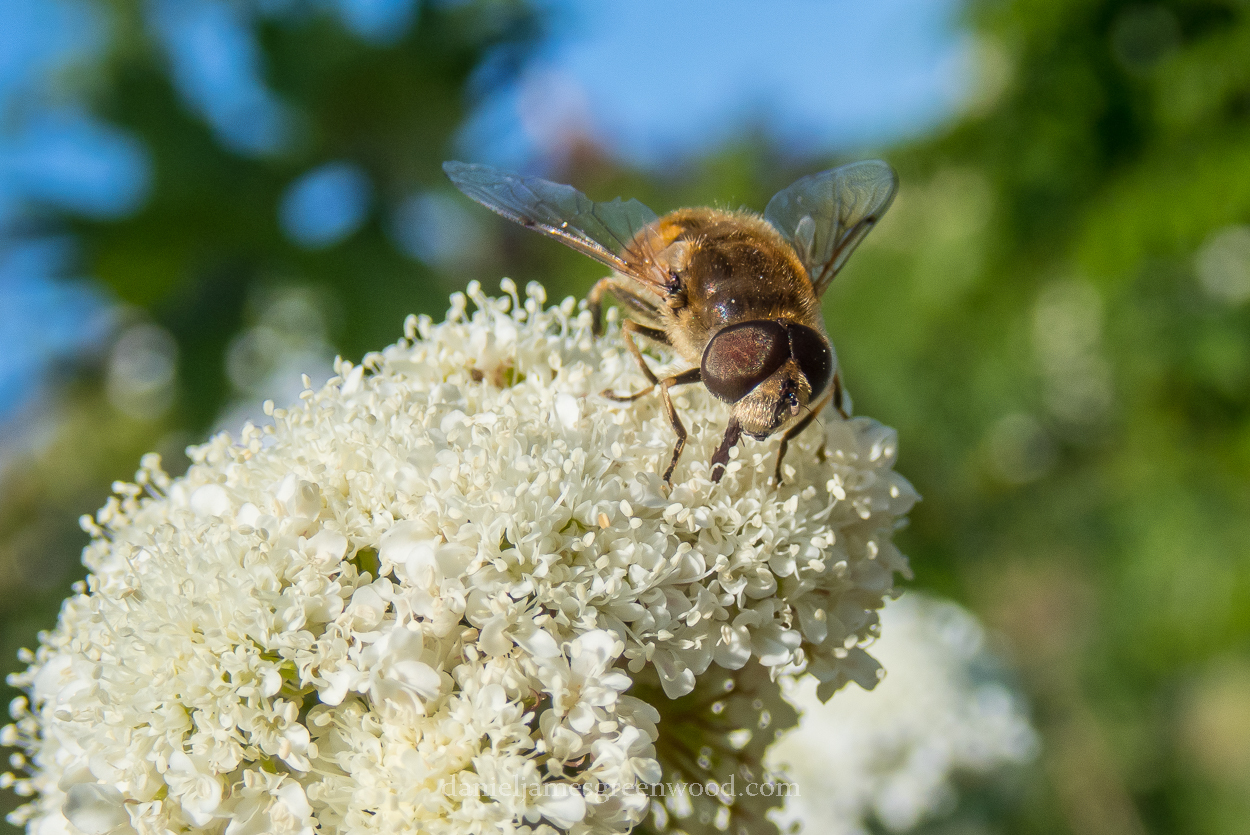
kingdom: Animalia
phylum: Arthropoda
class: Insecta
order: Diptera
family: Syrphidae
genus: Eristalis
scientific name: Eristalis arbustorum
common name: Hover fly
